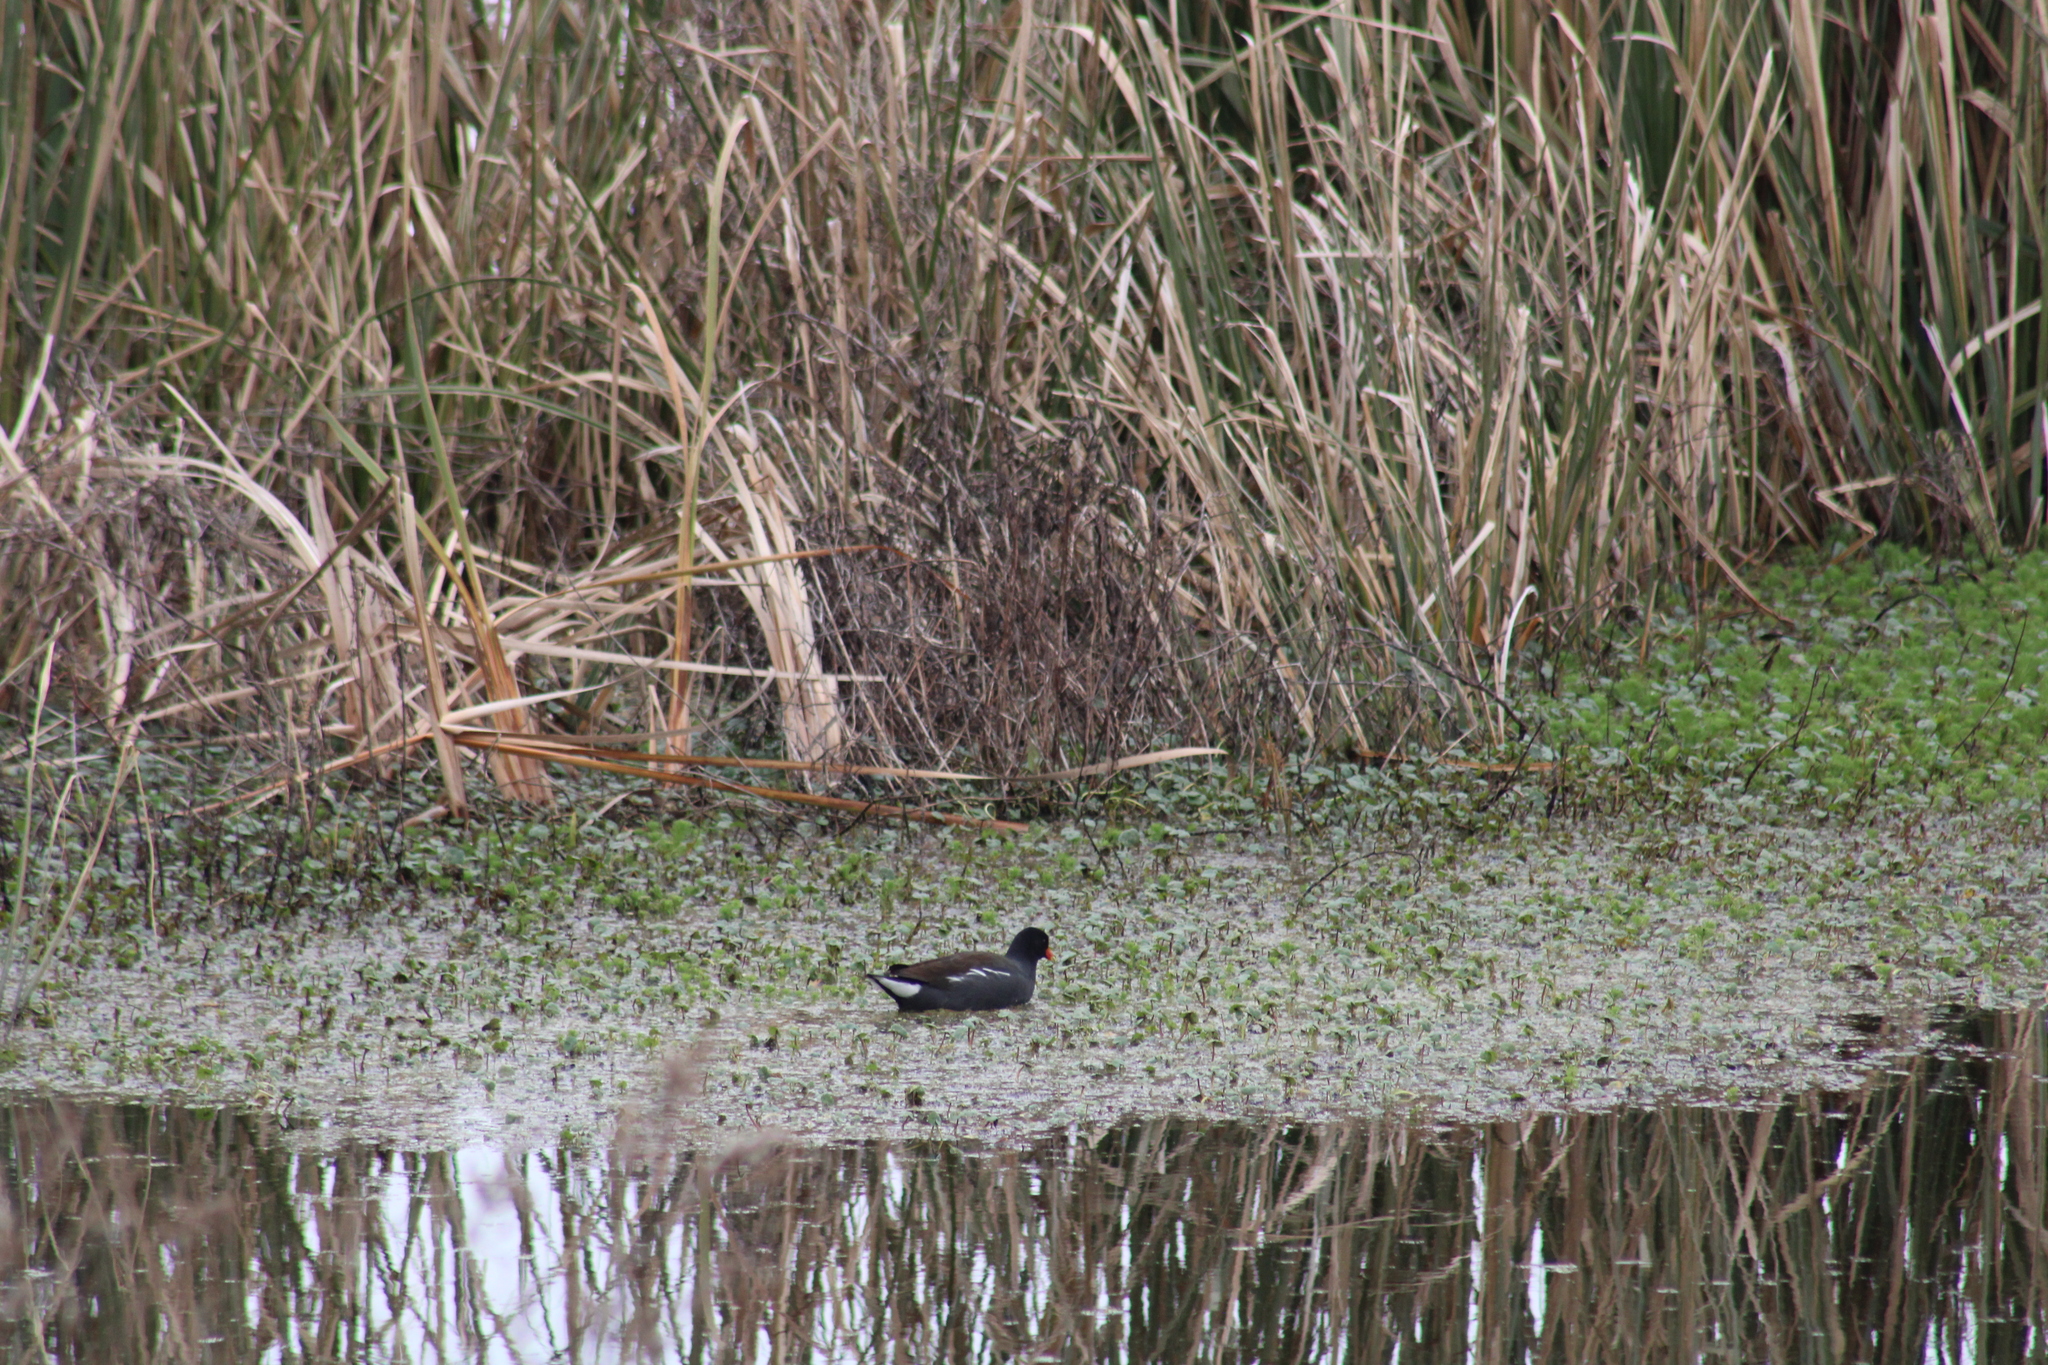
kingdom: Animalia
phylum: Chordata
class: Aves
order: Gruiformes
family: Rallidae
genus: Gallinula
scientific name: Gallinula chloropus
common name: Common moorhen
